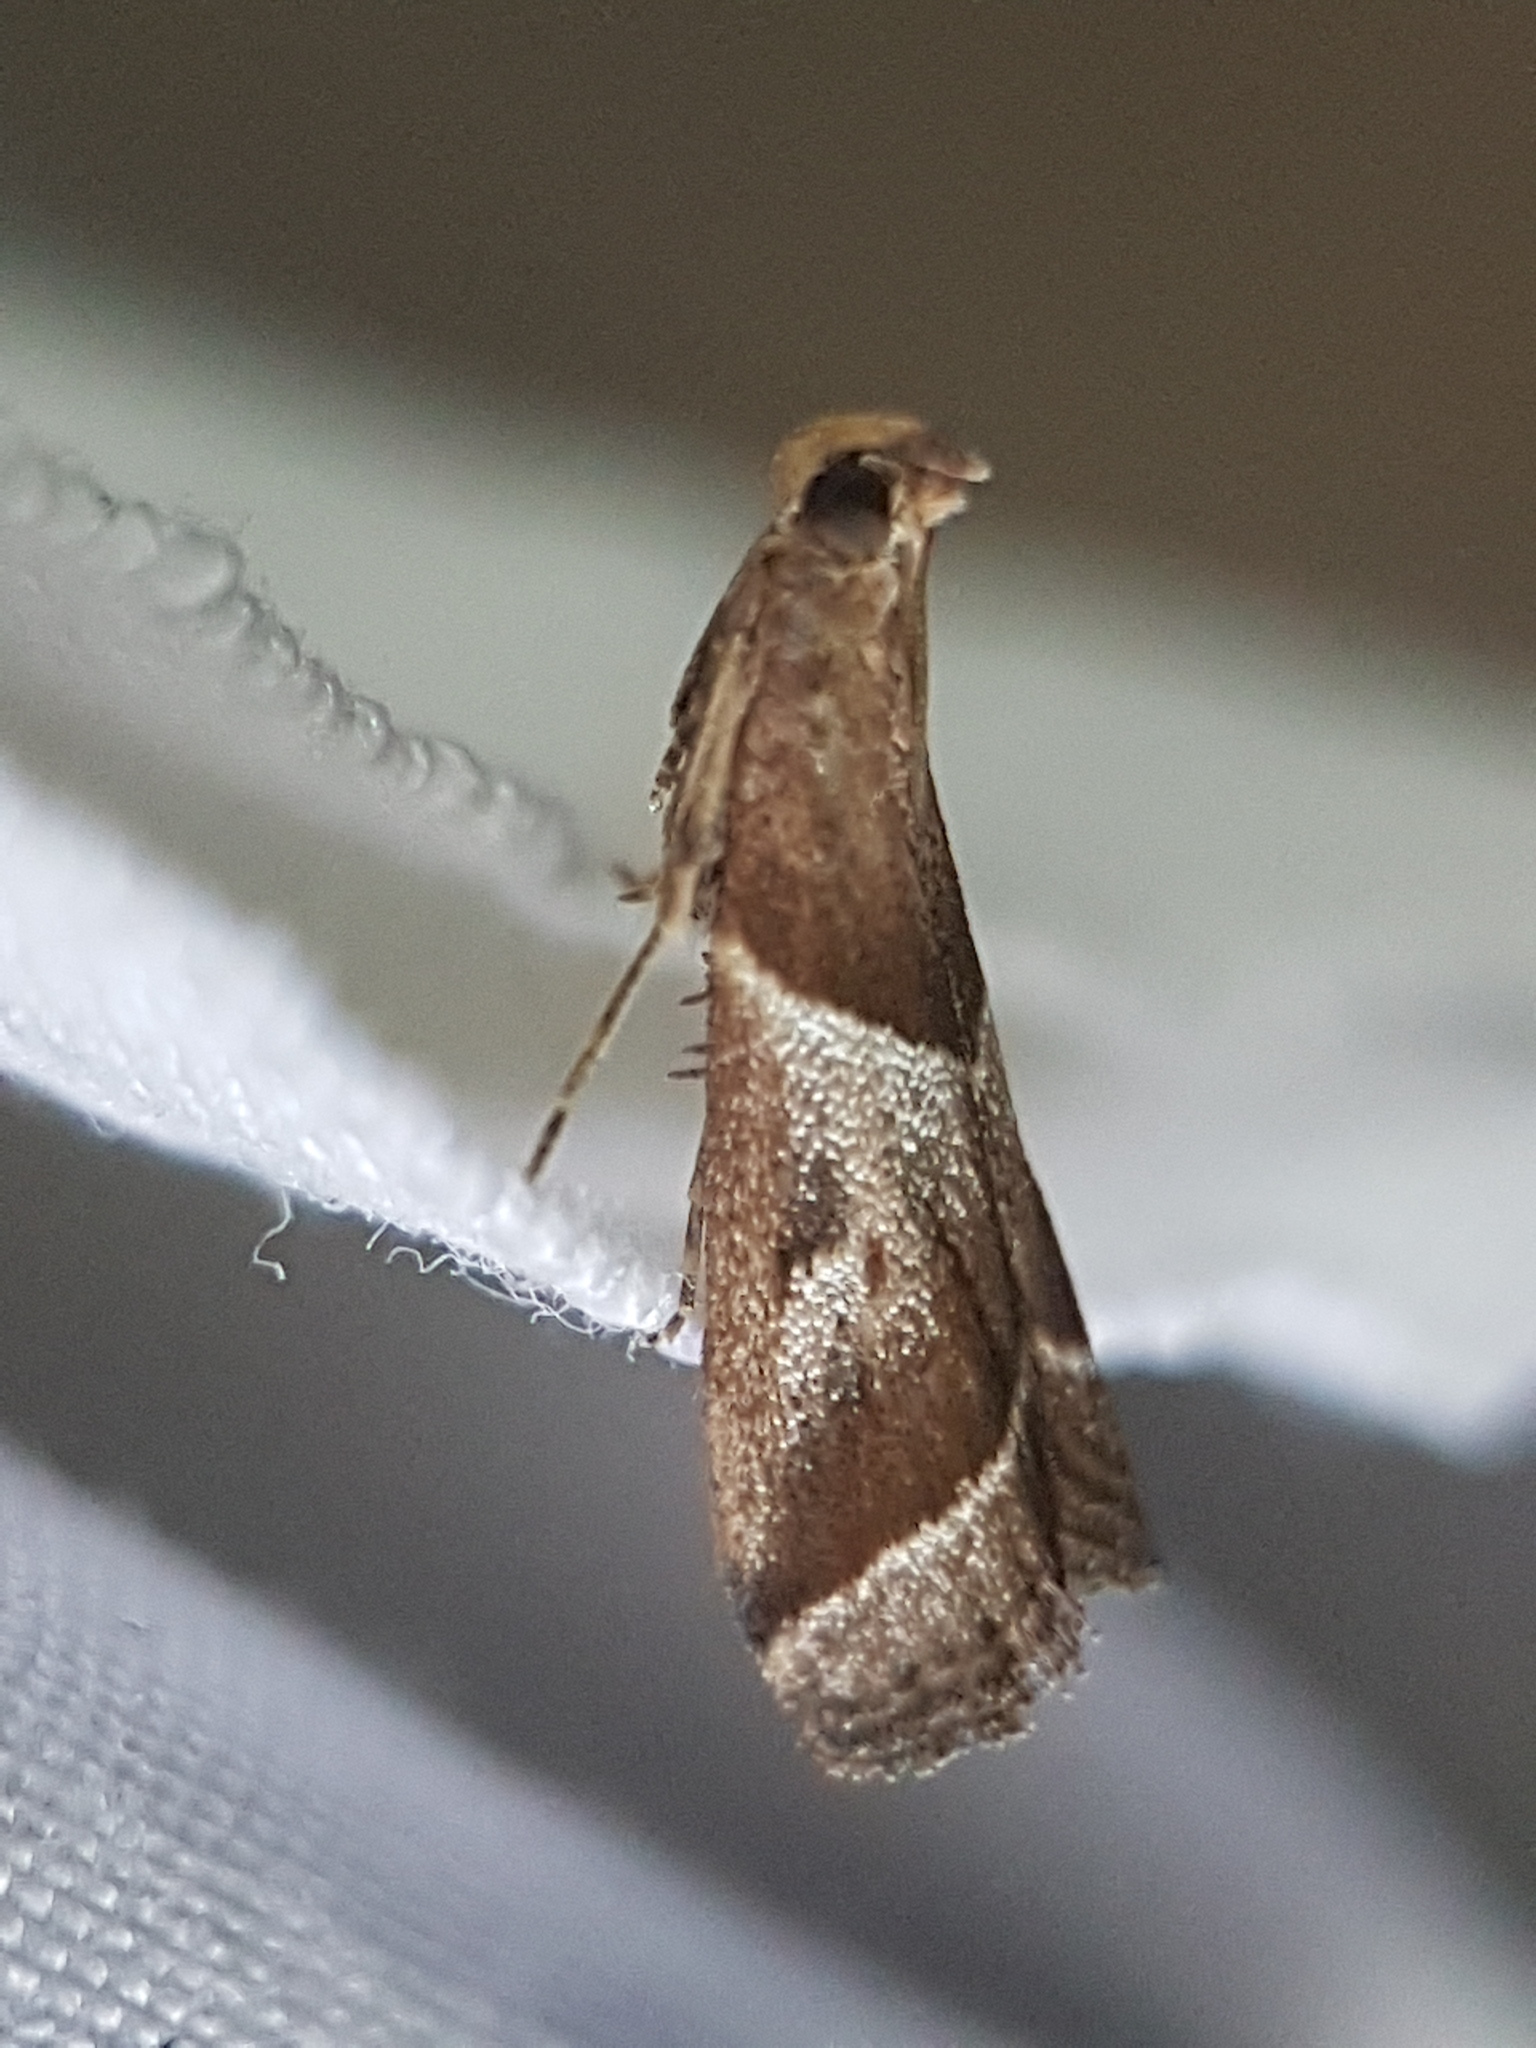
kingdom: Animalia
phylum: Arthropoda
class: Insecta
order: Lepidoptera
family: Pyralidae
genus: Nyctegretis
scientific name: Nyctegretis lineana
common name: Agate knot-horn
